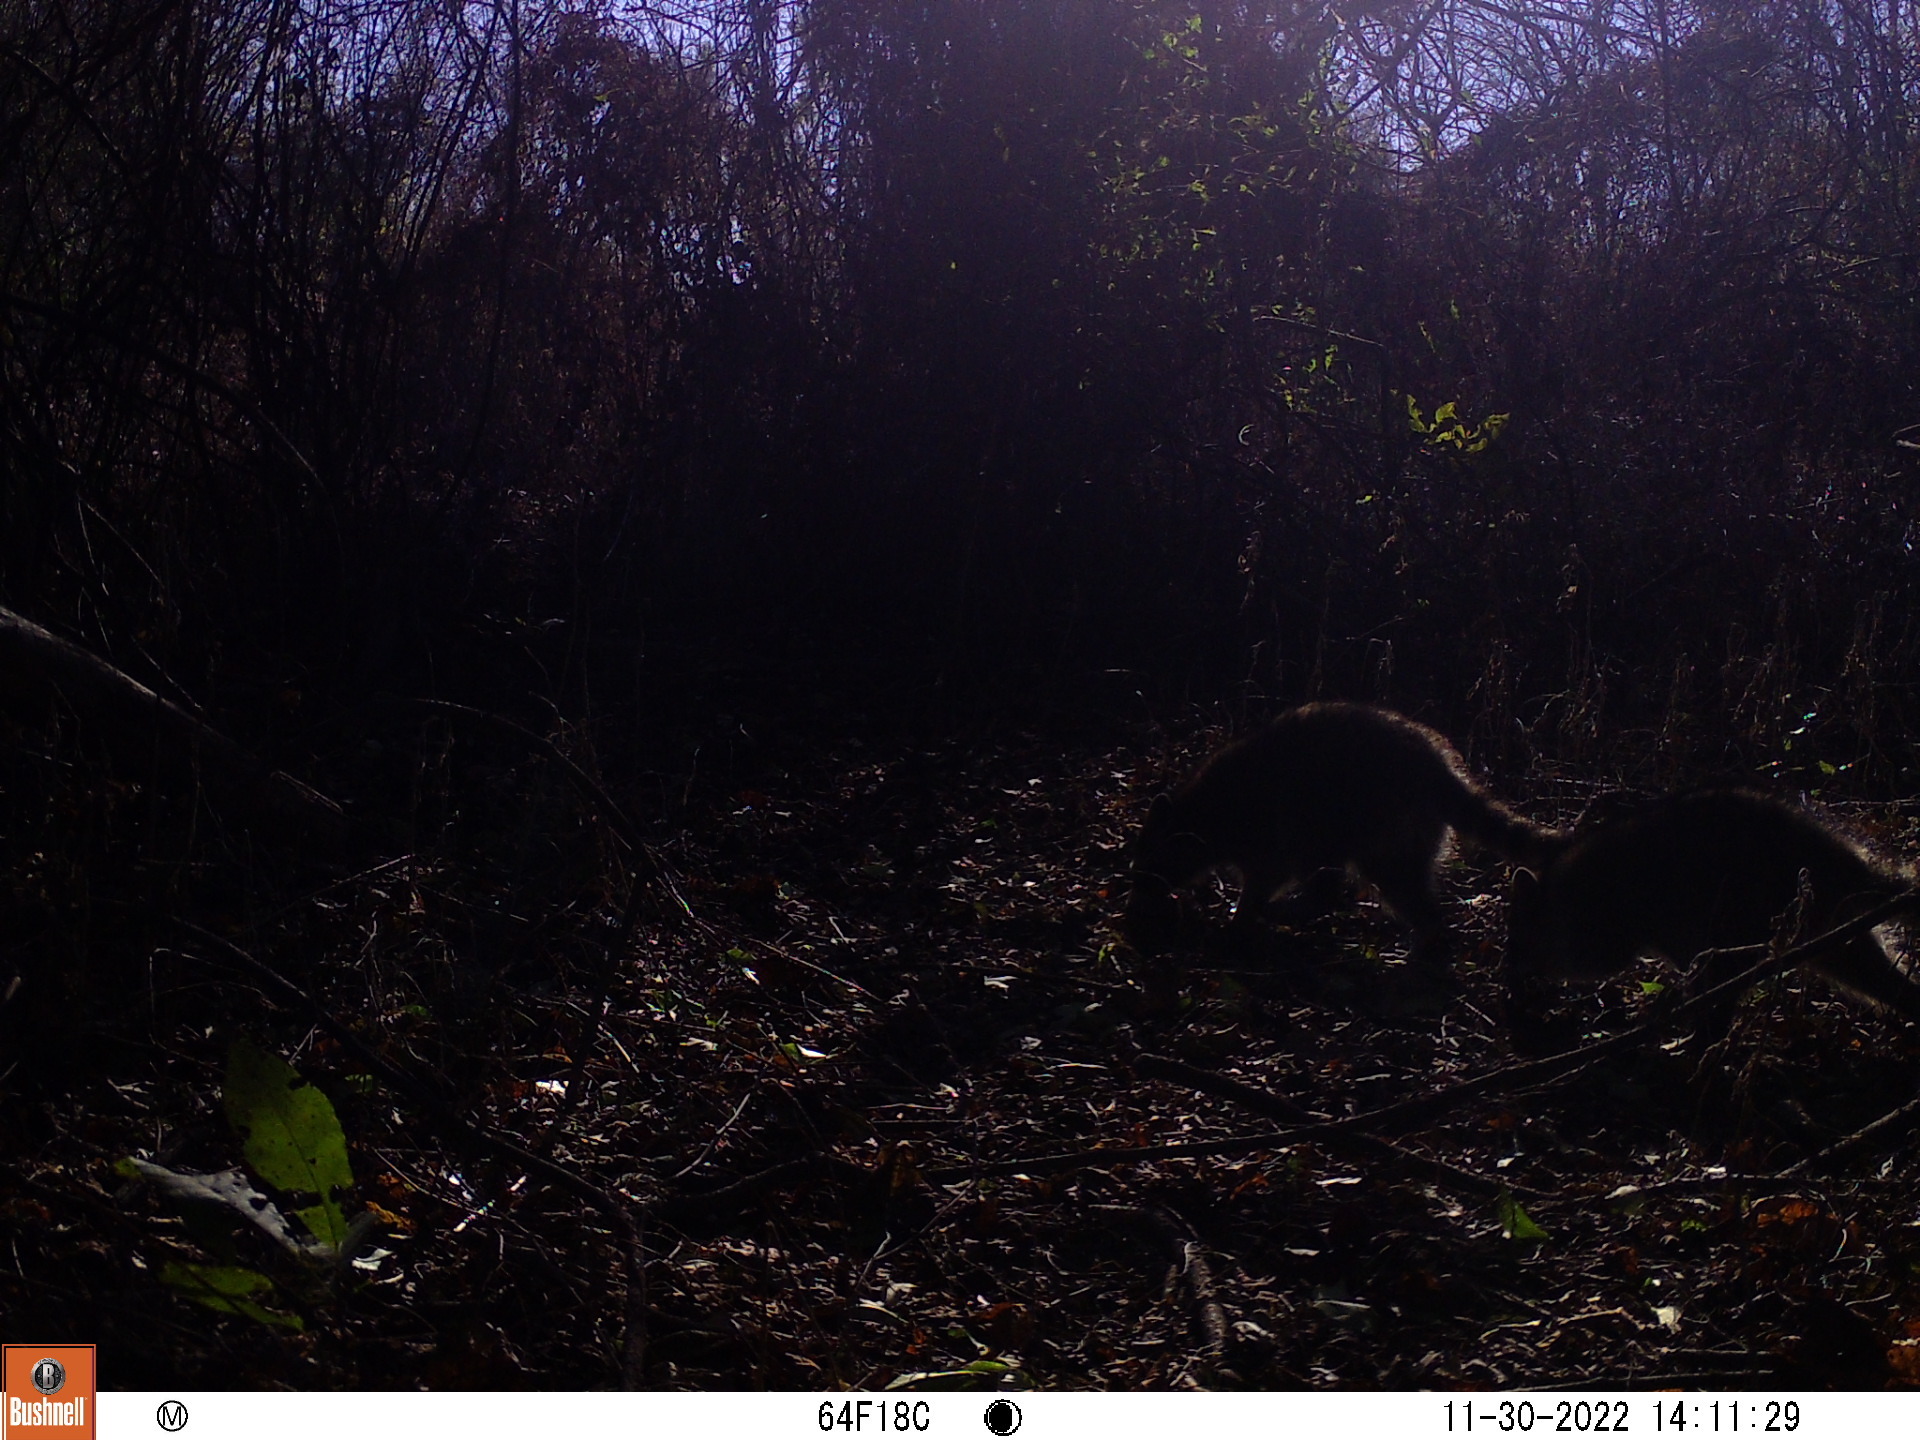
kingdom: Animalia
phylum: Chordata
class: Mammalia
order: Carnivora
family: Procyonidae
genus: Procyon
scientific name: Procyon lotor
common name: Raccoon
